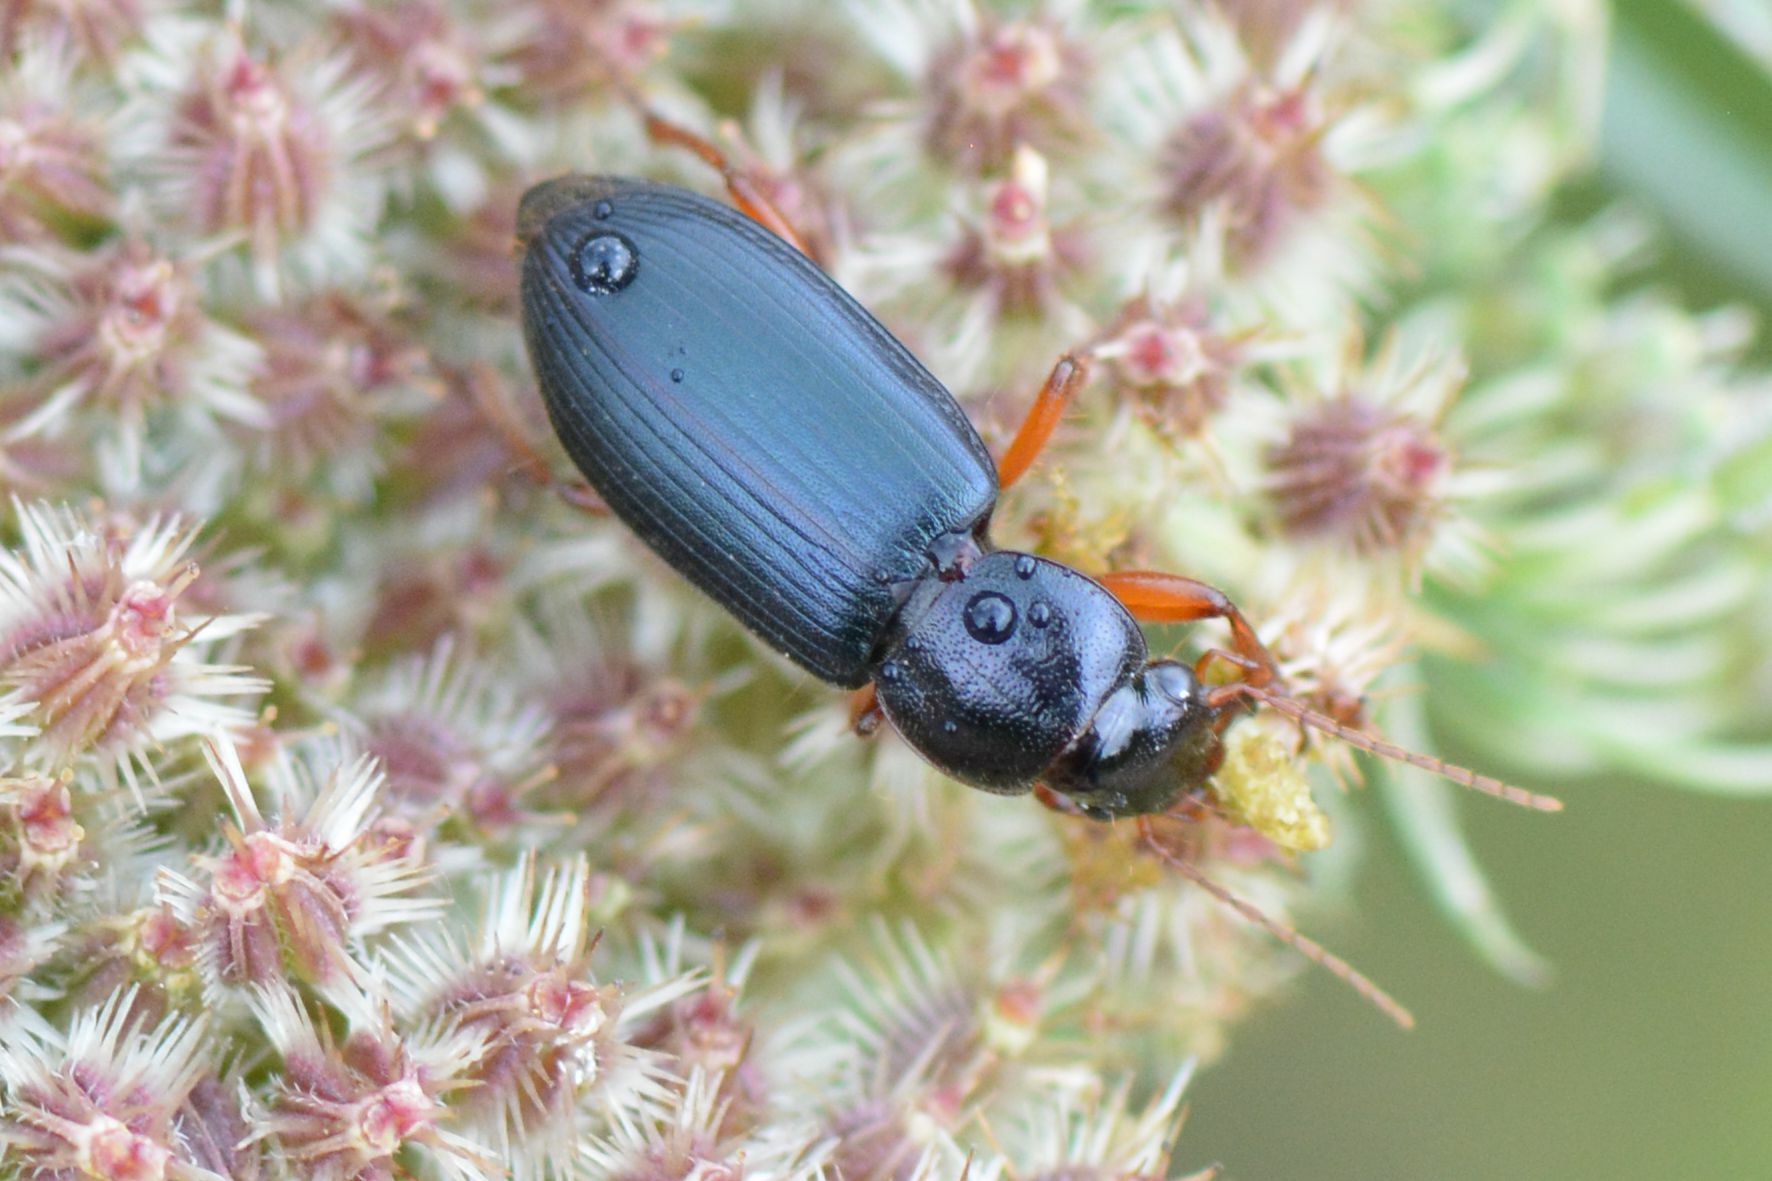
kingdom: Animalia
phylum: Arthropoda
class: Insecta
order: Coleoptera
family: Carabidae
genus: Ophonus
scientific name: Ophonus ardosiacus
